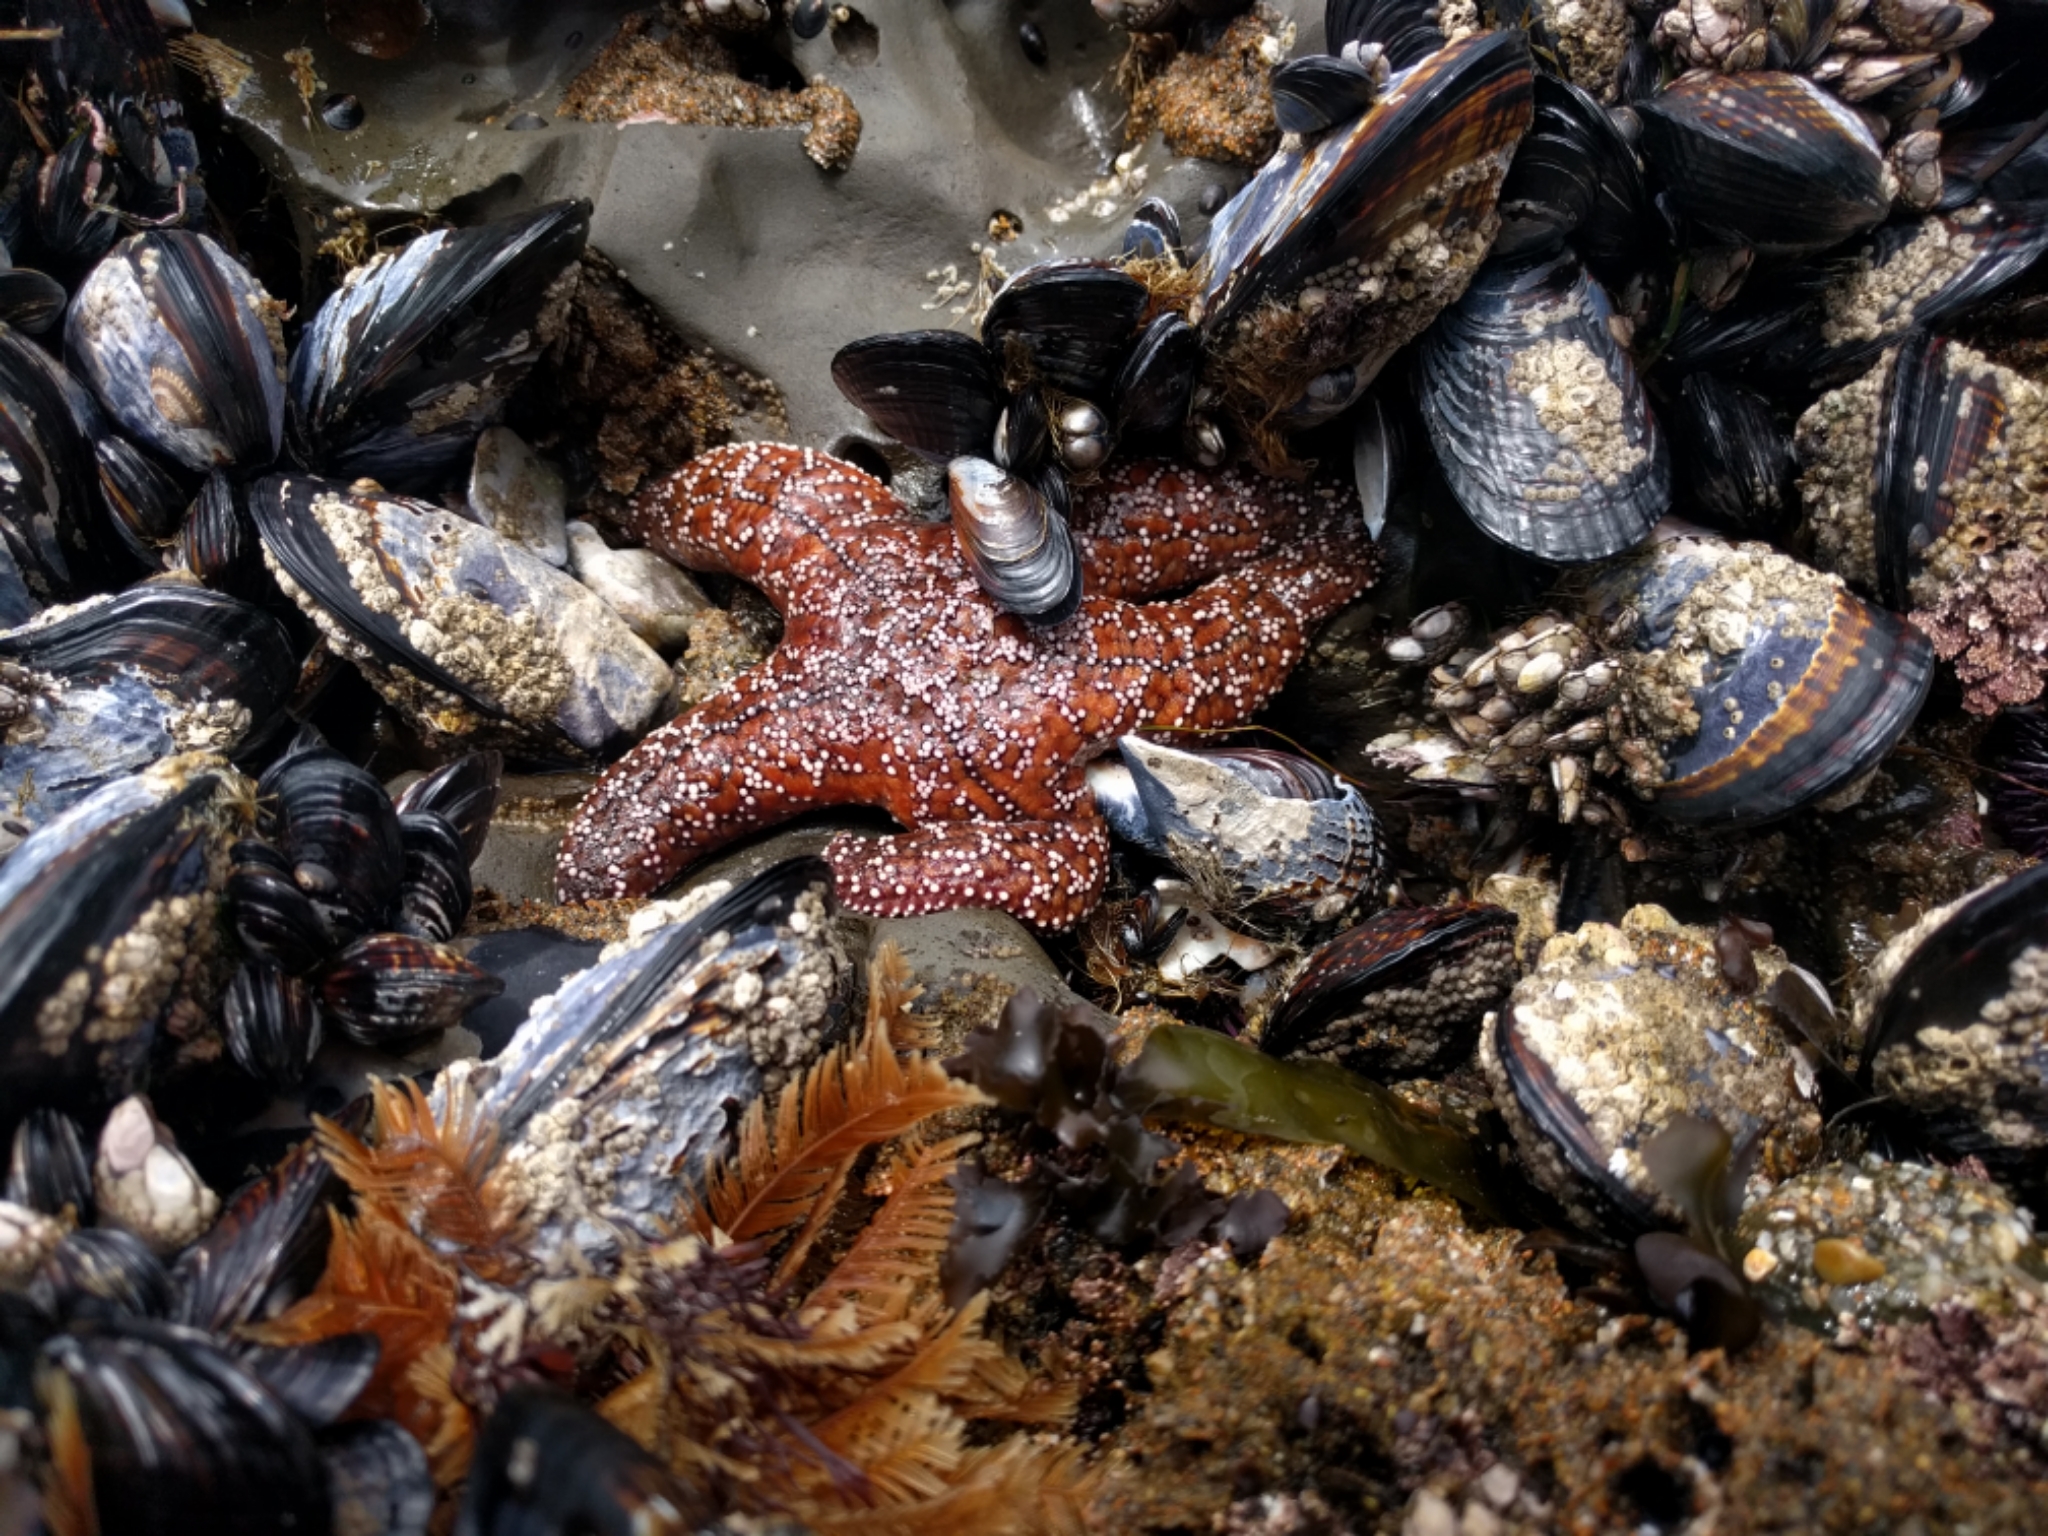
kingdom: Animalia
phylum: Echinodermata
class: Asteroidea
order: Forcipulatida
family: Asteriidae
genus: Pisaster
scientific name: Pisaster ochraceus
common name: Ochre stars
